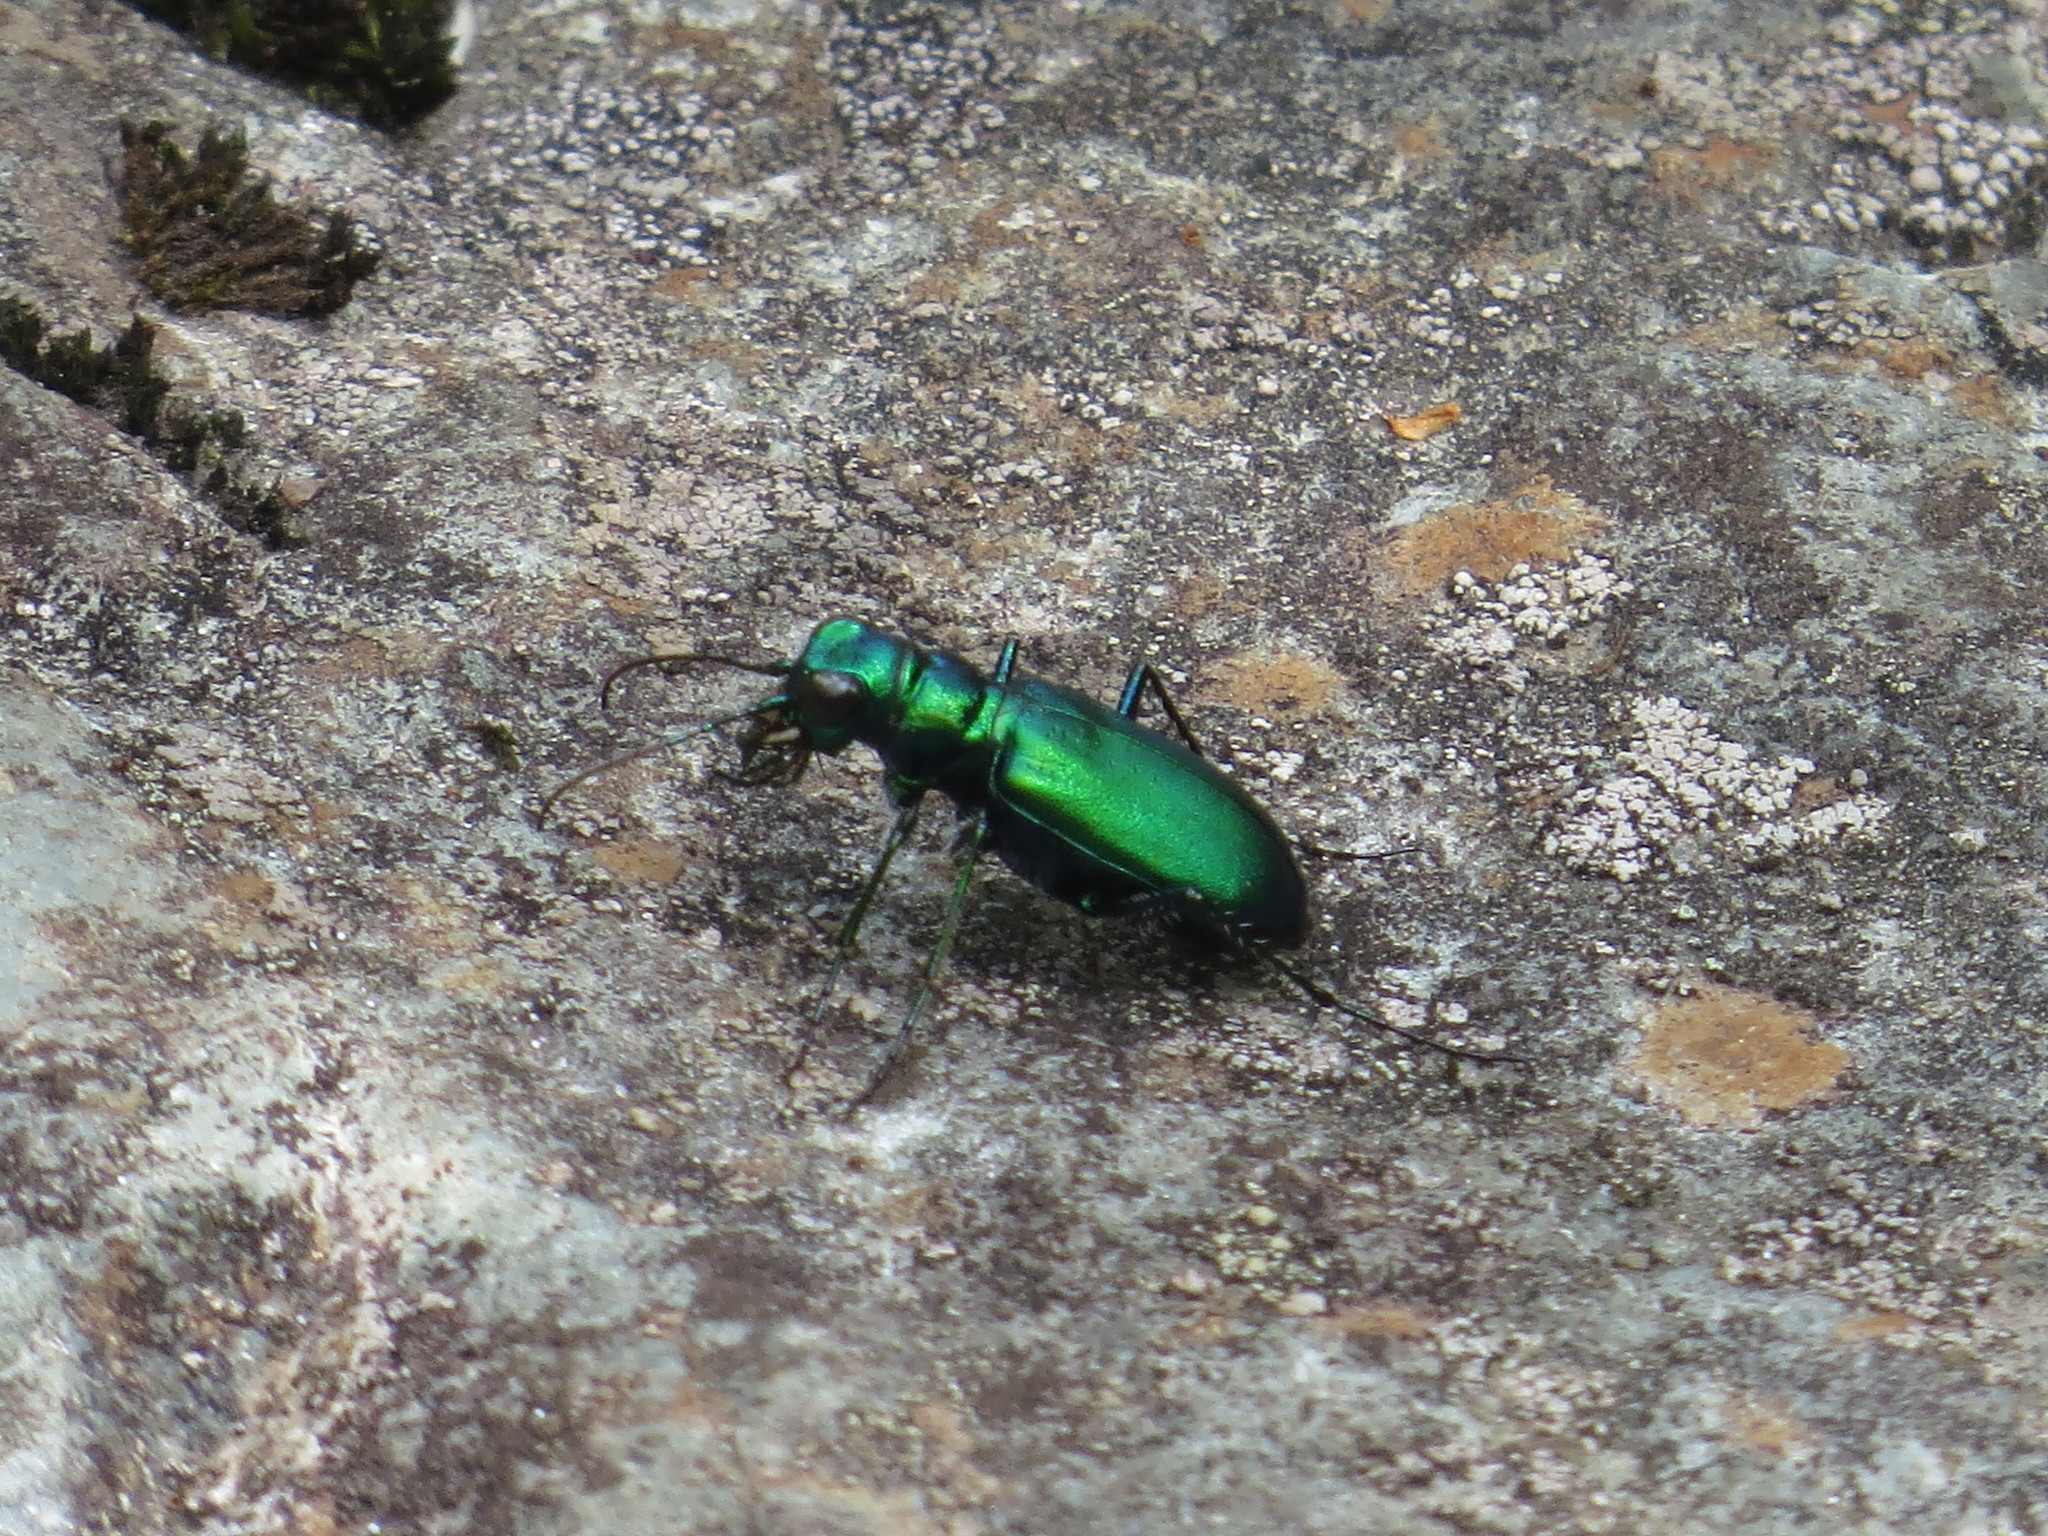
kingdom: Animalia
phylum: Arthropoda
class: Insecta
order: Coleoptera
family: Carabidae
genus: Cicindela
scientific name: Cicindela denikei
